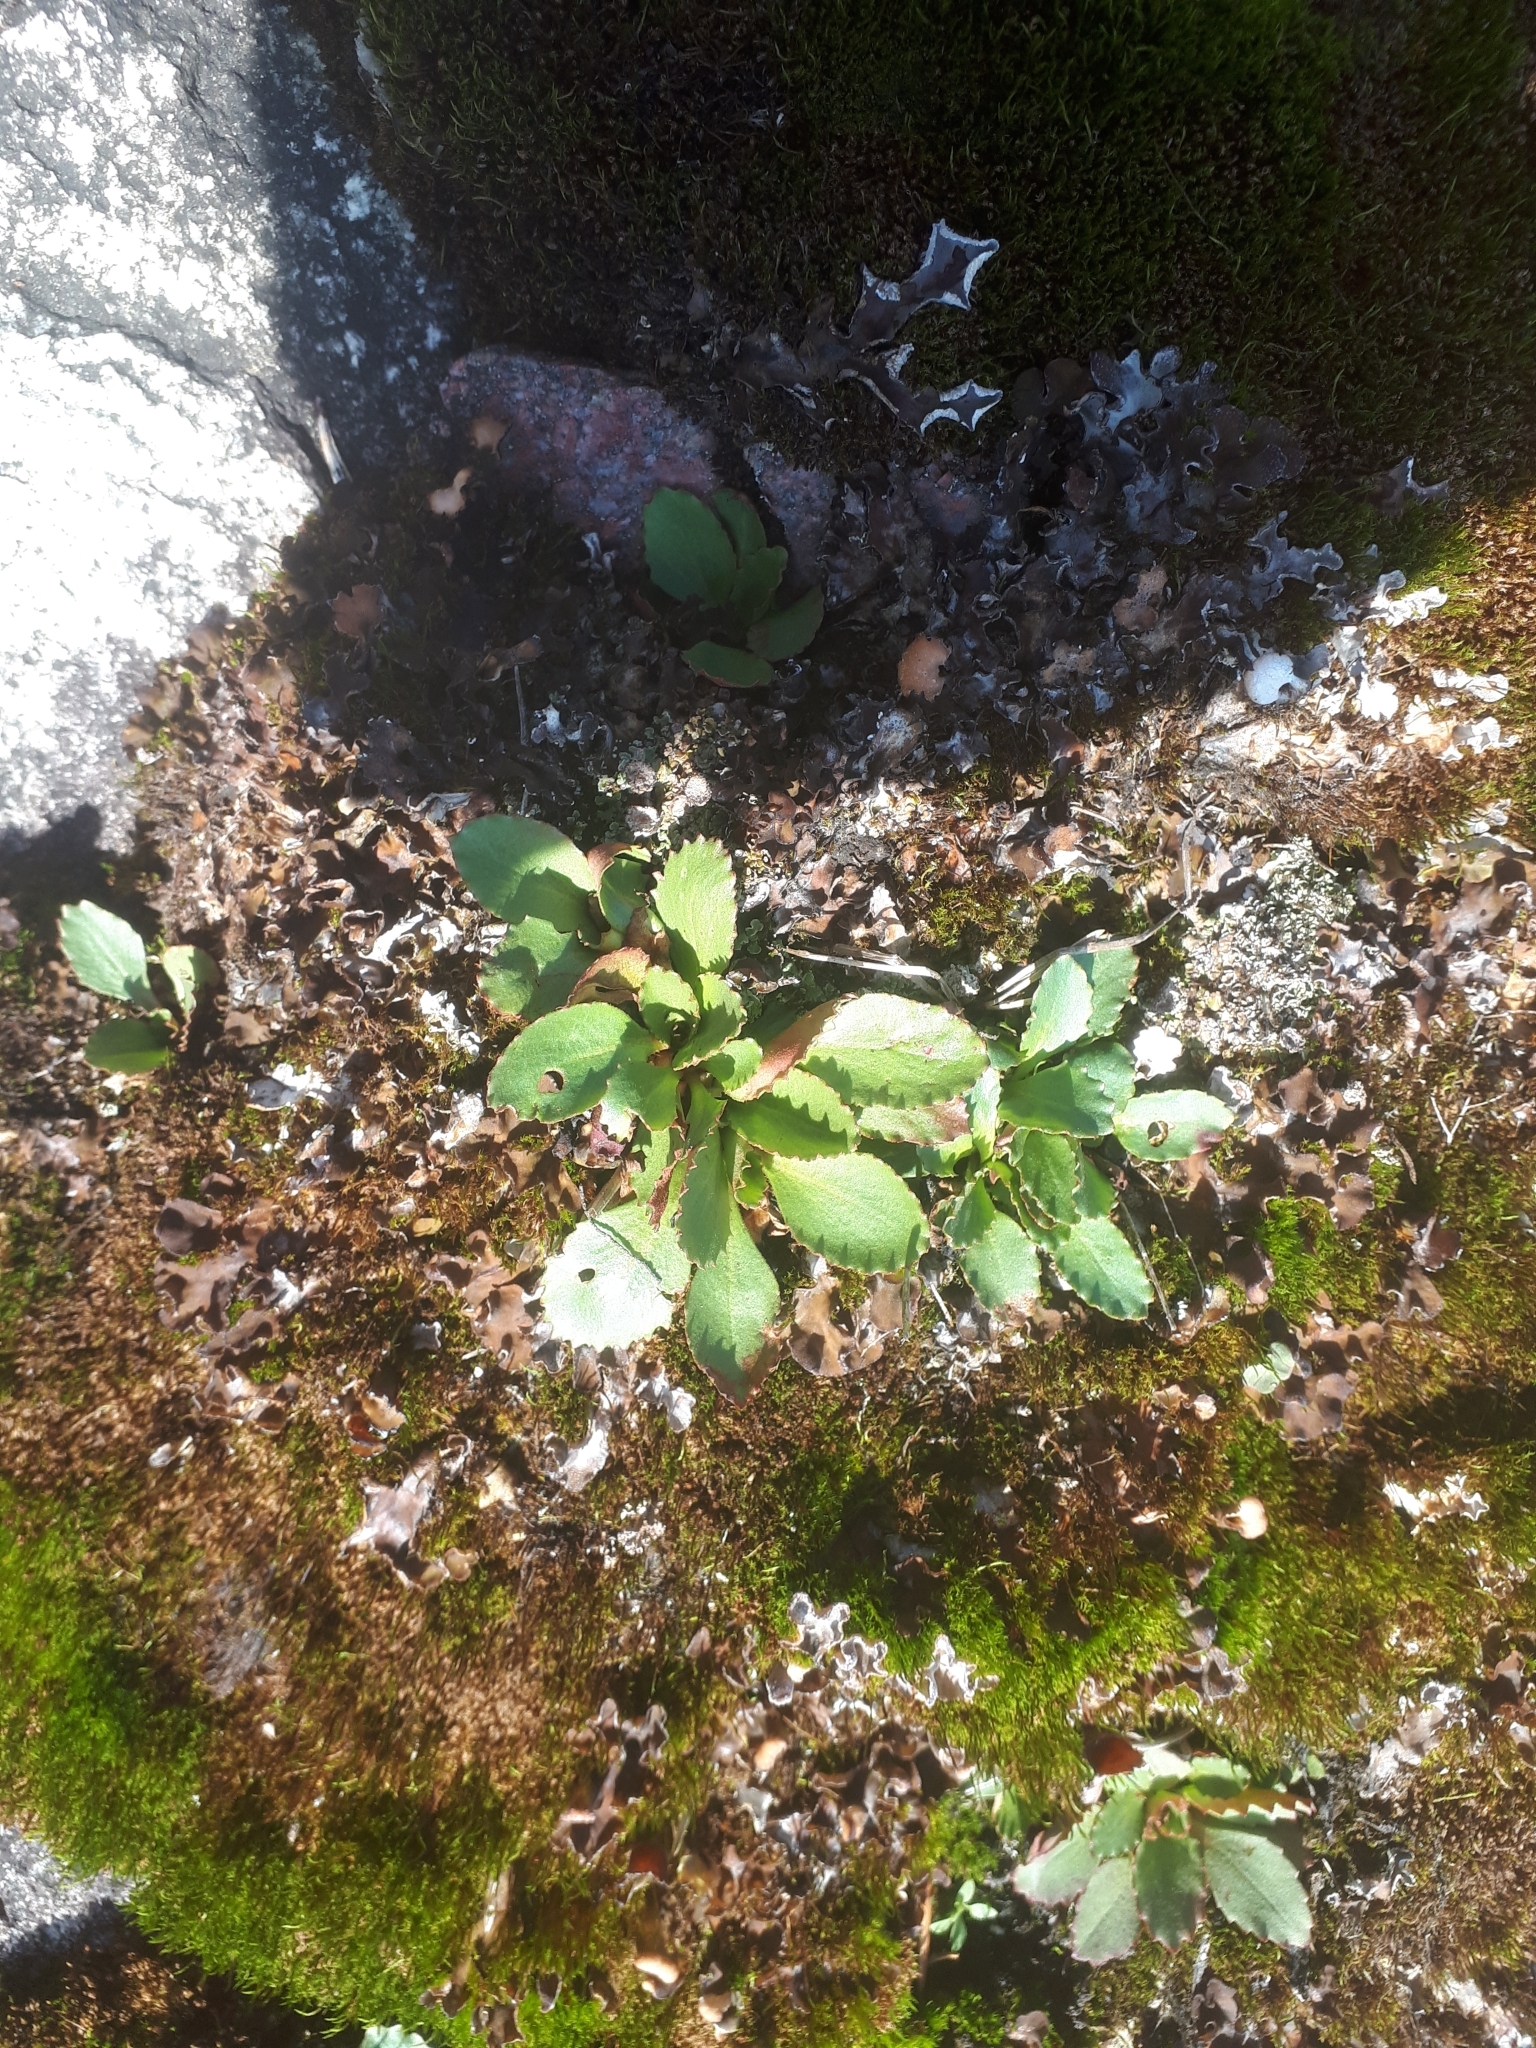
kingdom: Plantae
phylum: Tracheophyta
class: Magnoliopsida
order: Saxifragales
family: Saxifragaceae
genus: Micranthes
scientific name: Micranthes virginiensis
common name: Early saxifrage
